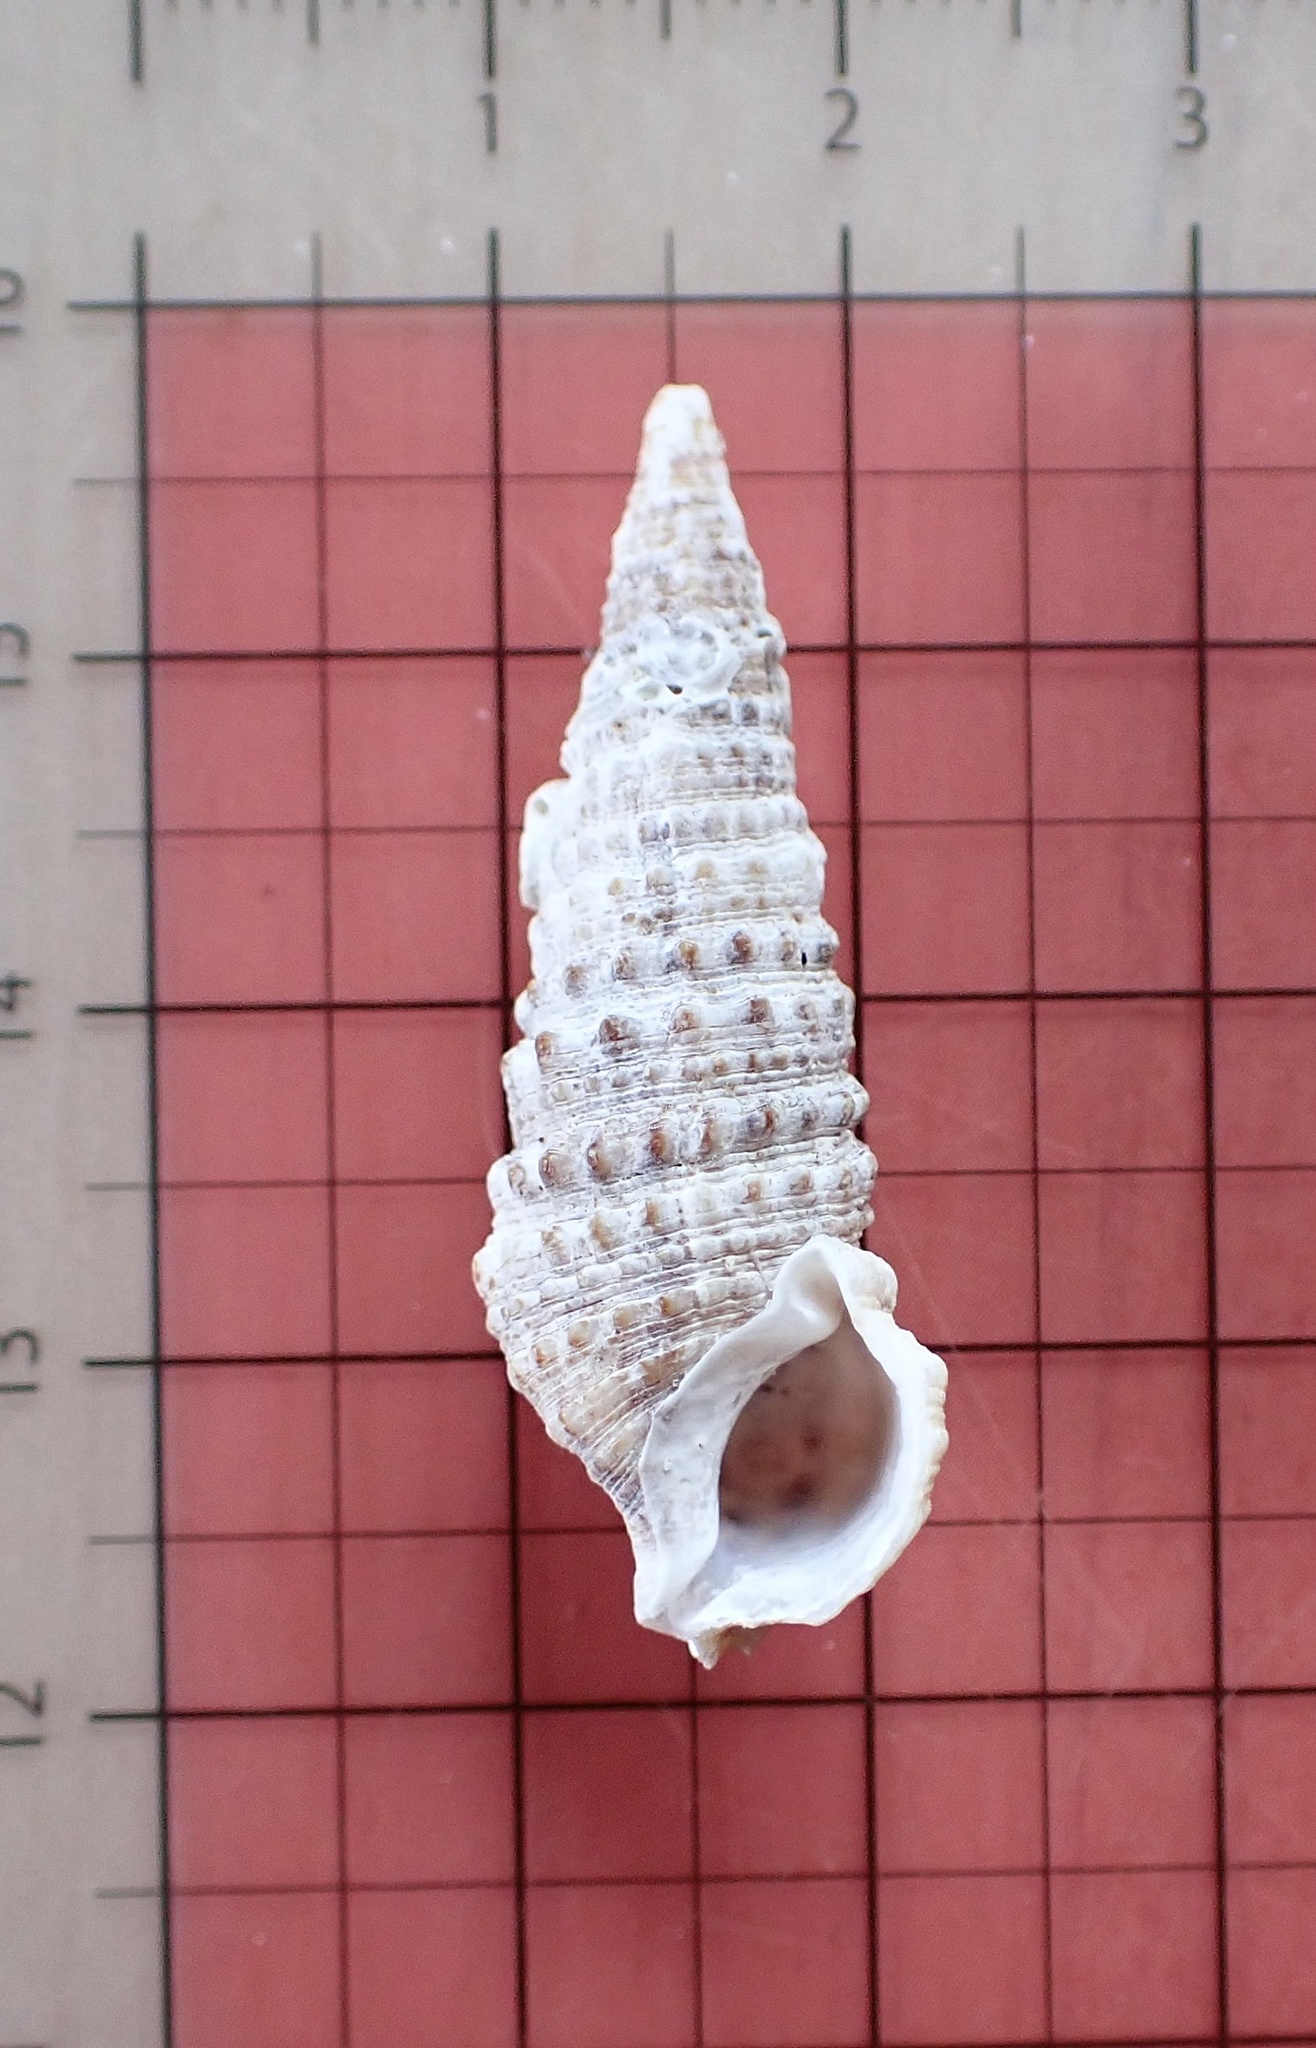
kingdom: Animalia
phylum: Mollusca
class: Gastropoda
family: Cerithiidae
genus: Cerithium
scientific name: Cerithium atratum
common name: Dark cerith
